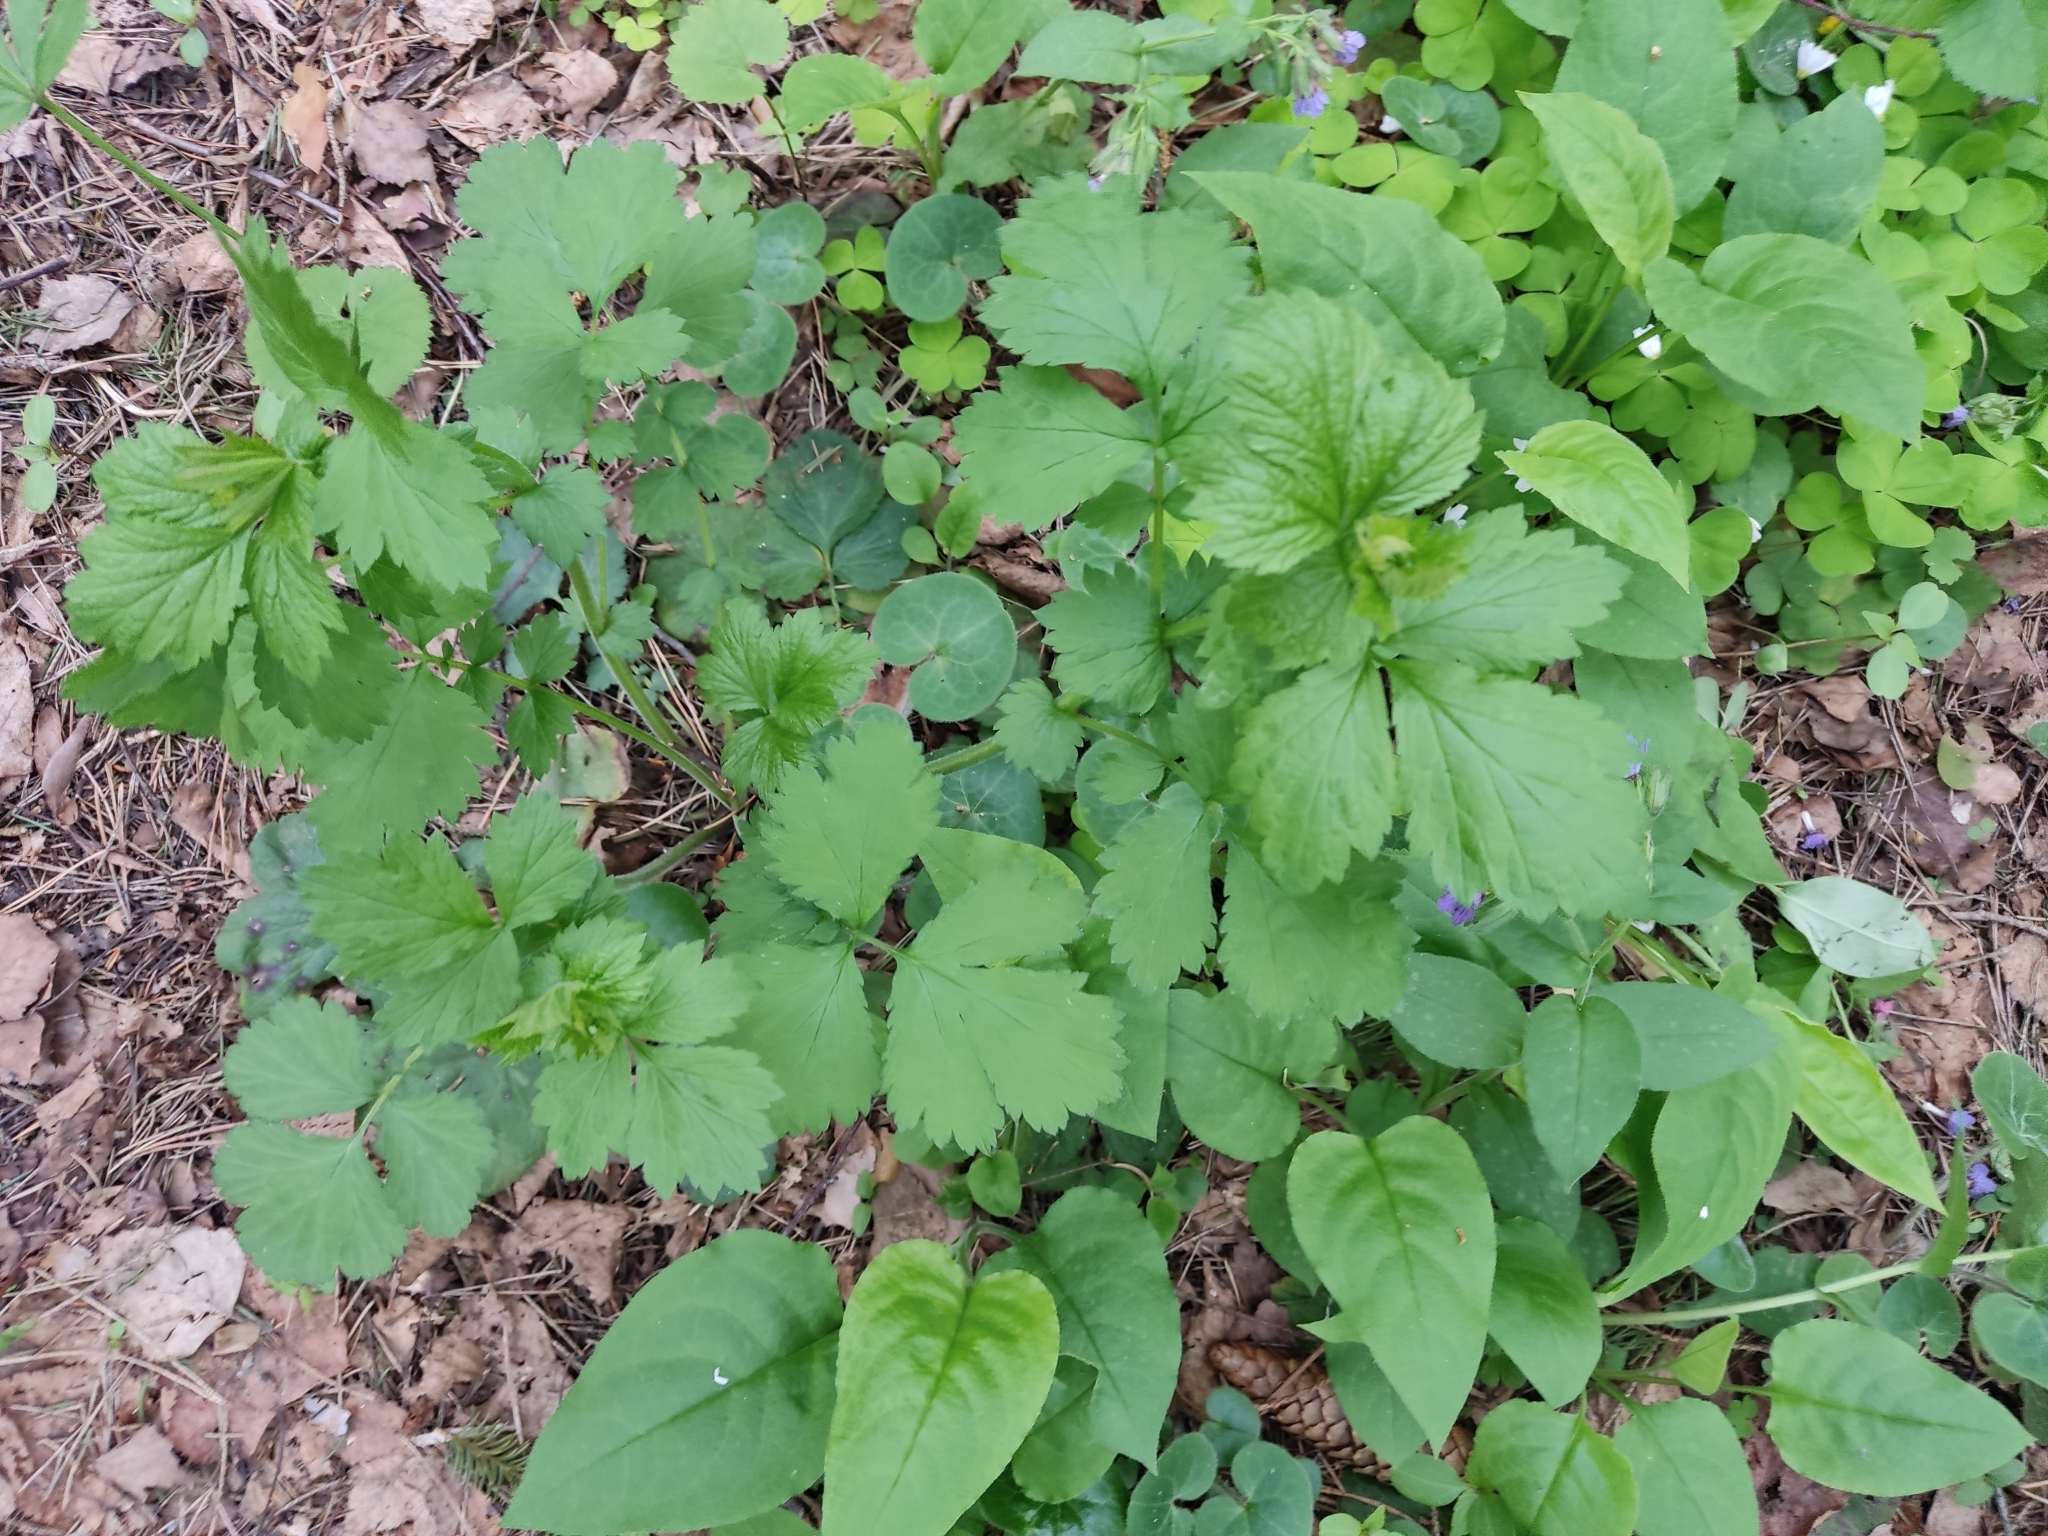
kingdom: Plantae
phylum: Tracheophyta
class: Magnoliopsida
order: Rosales
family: Rosaceae
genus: Geum
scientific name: Geum urbanum
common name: Wood avens
